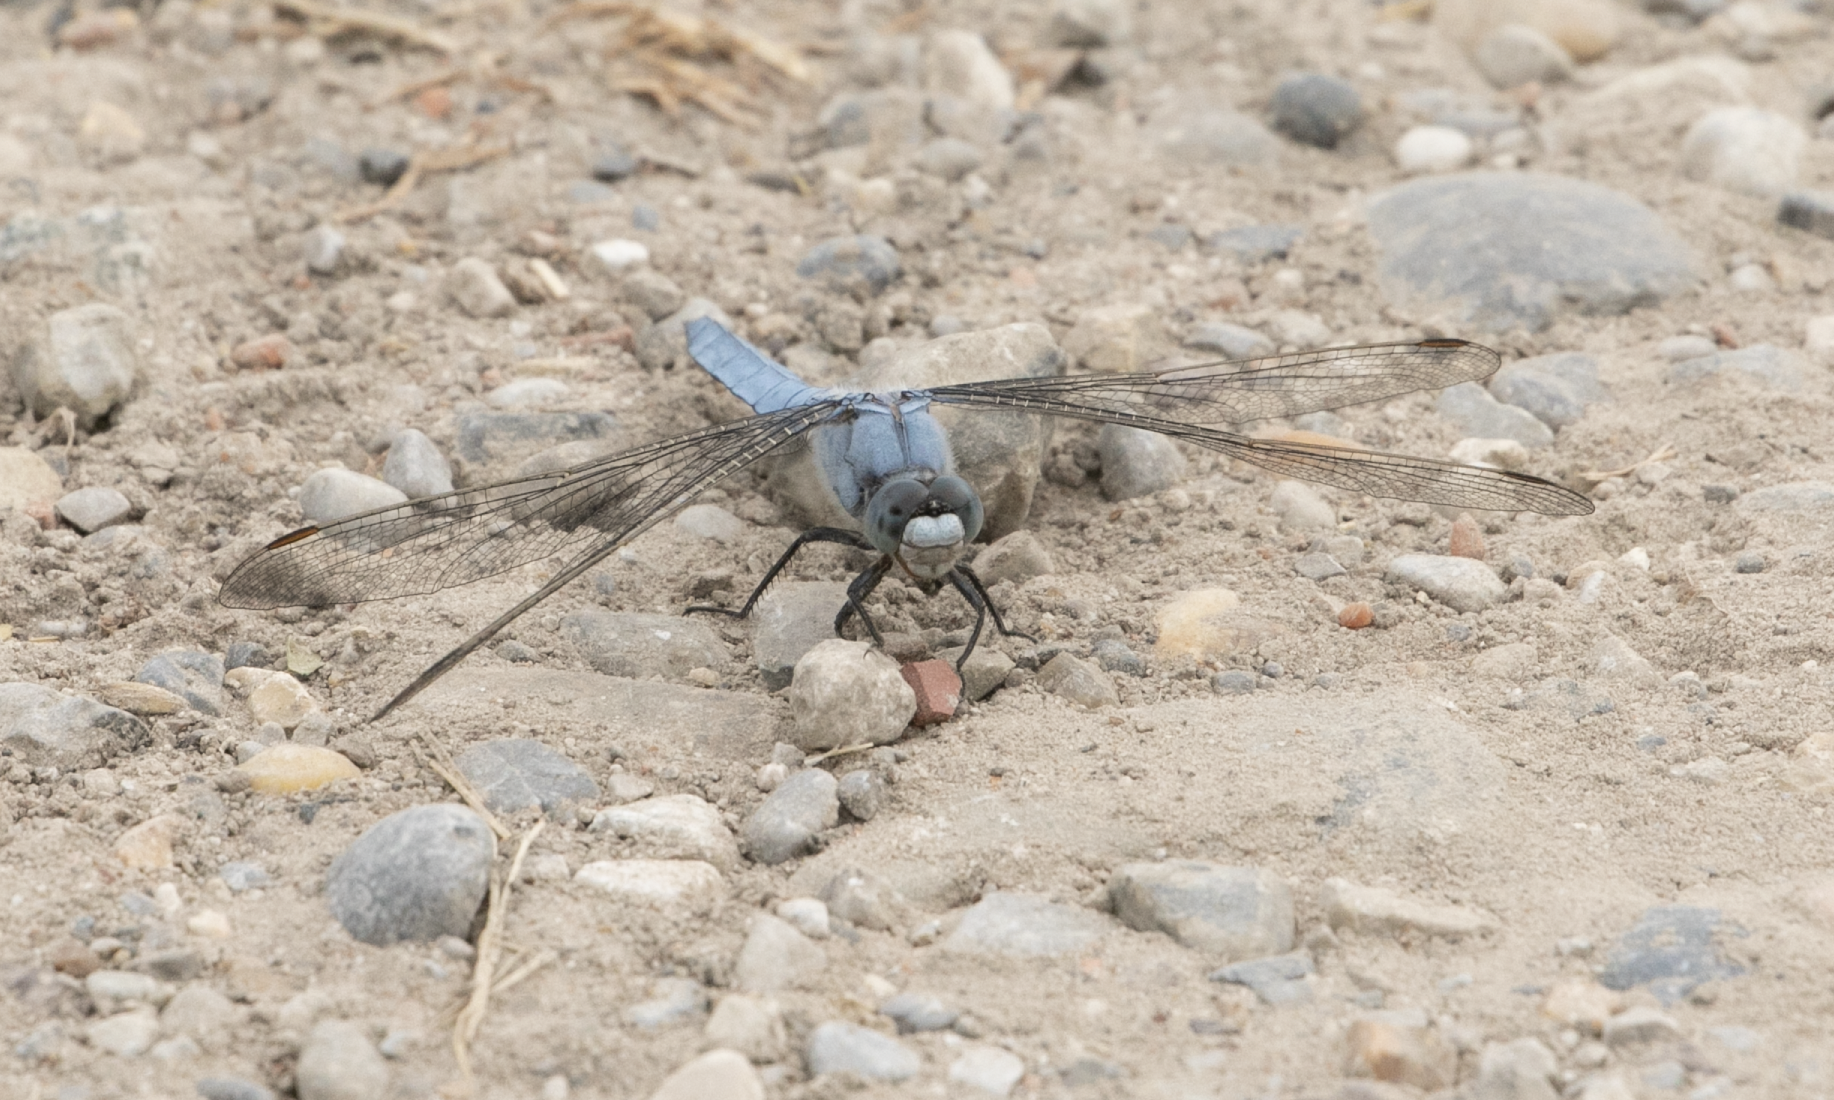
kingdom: Animalia
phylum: Arthropoda
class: Insecta
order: Odonata
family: Libellulidae
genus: Orthetrum
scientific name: Orthetrum brunneum
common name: Southern skimmer
